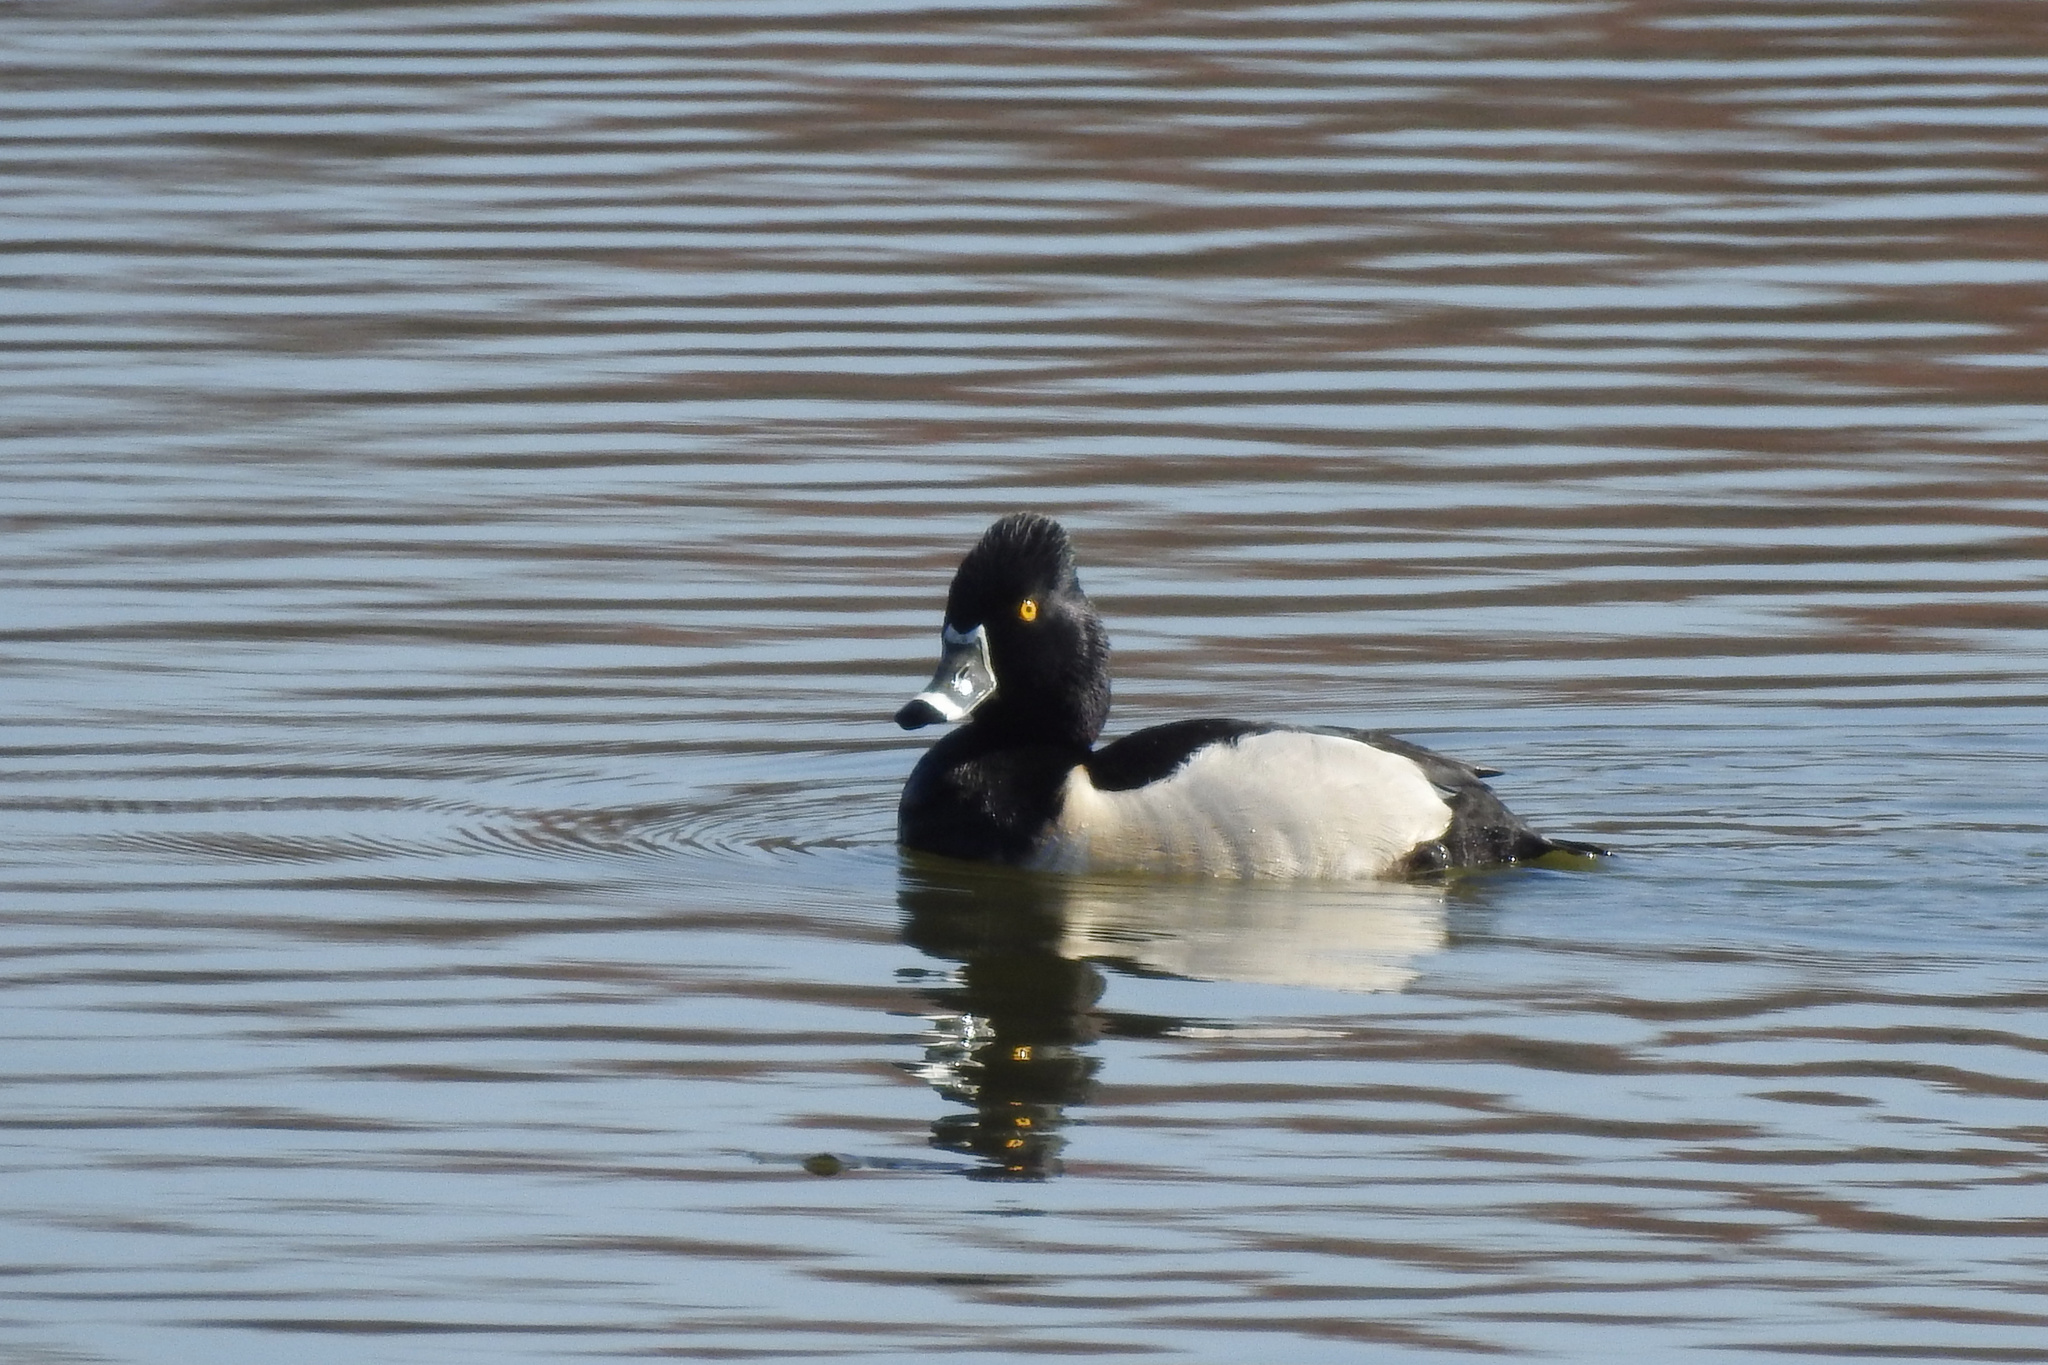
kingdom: Animalia
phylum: Chordata
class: Aves
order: Anseriformes
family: Anatidae
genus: Aythya
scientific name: Aythya collaris
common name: Ring-necked duck
